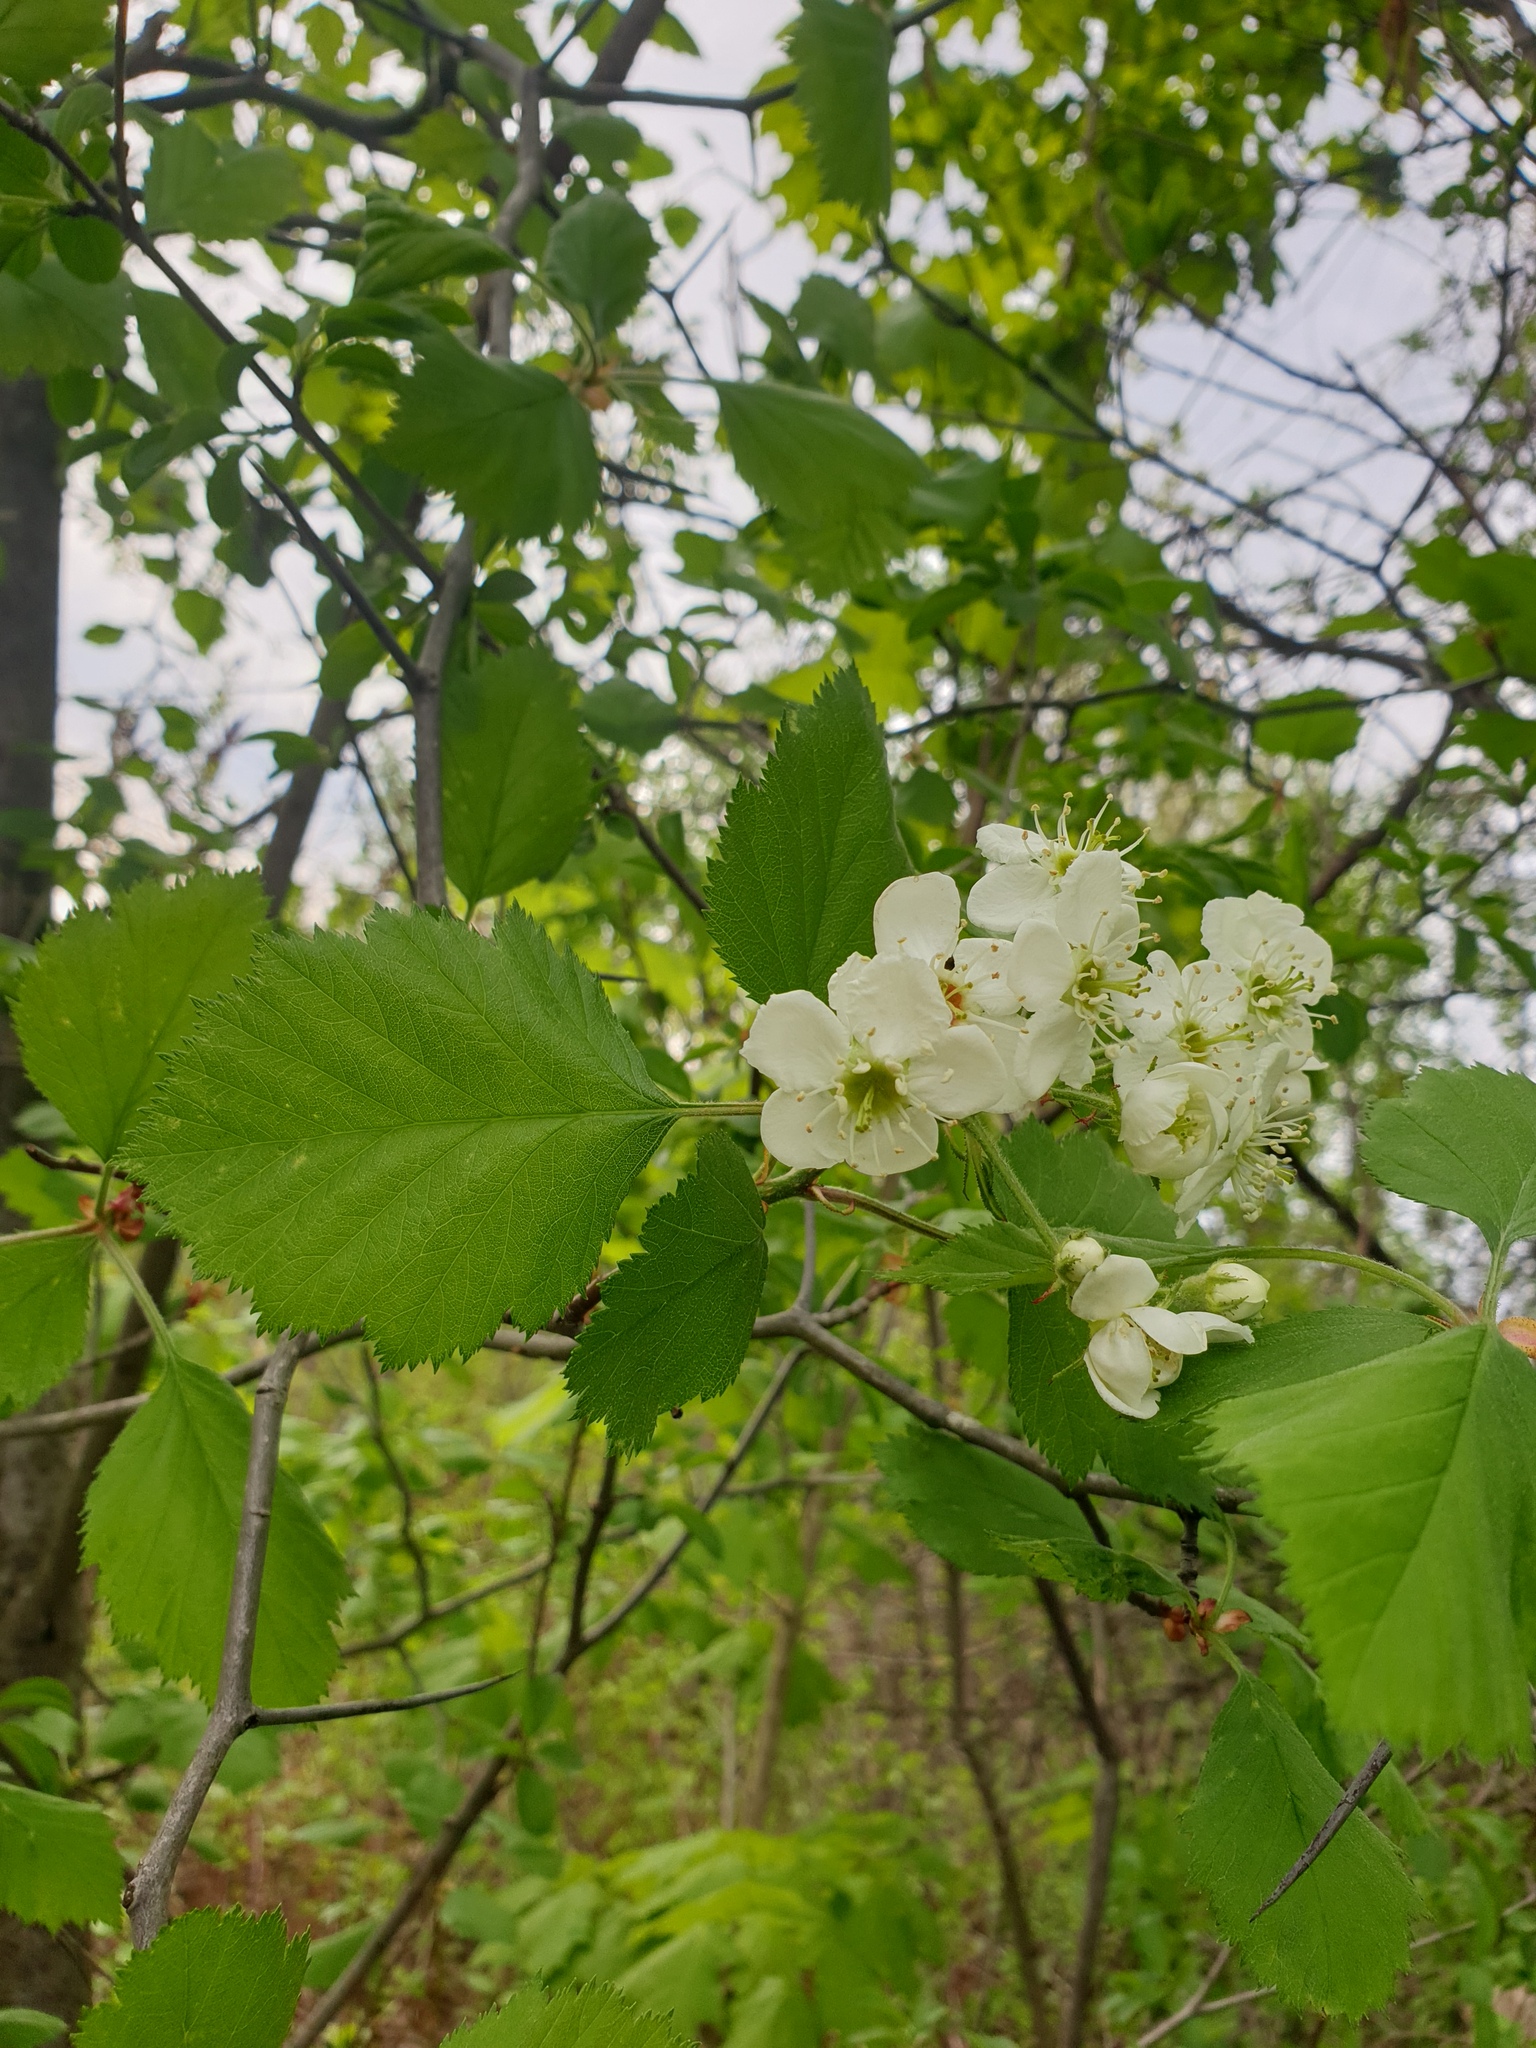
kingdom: Plantae
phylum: Tracheophyta
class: Magnoliopsida
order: Rosales
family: Rosaceae
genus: Crataegus
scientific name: Crataegus submollis
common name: Hairy cockspurthorn
